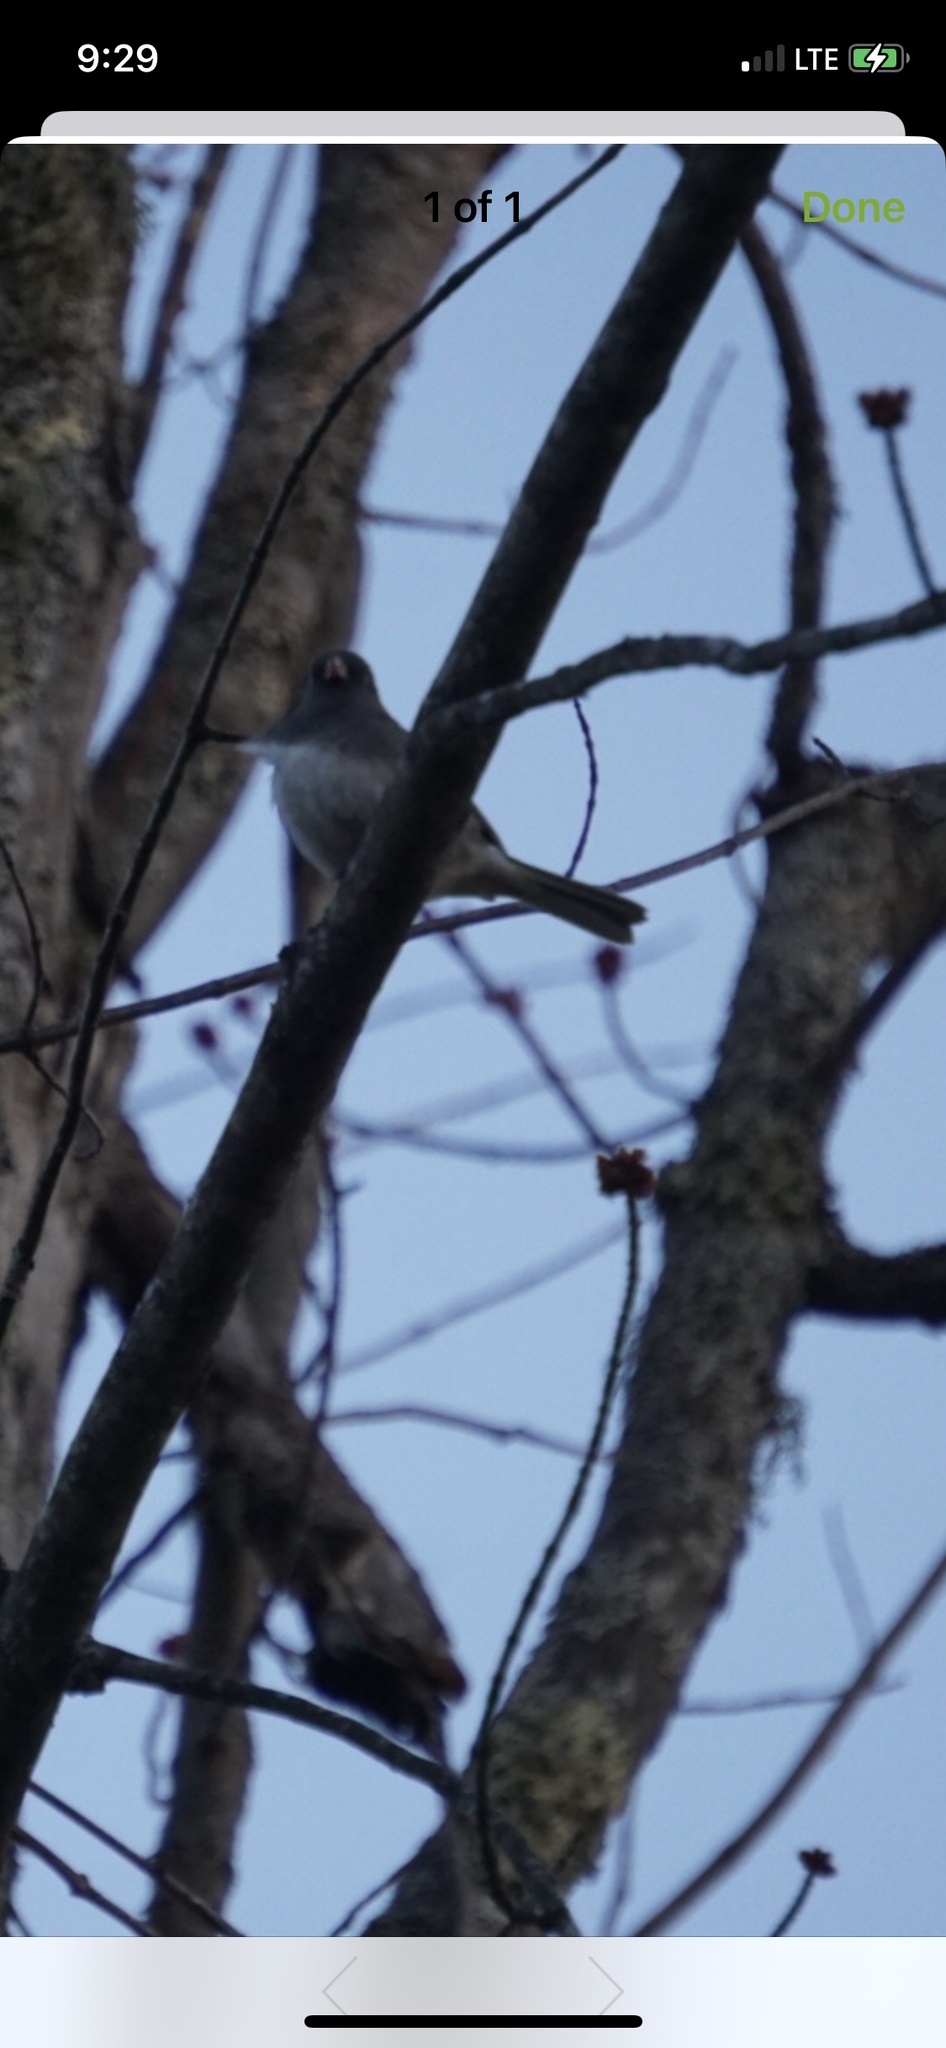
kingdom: Animalia
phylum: Chordata
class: Aves
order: Passeriformes
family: Passerellidae
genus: Junco
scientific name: Junco hyemalis
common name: Dark-eyed junco
